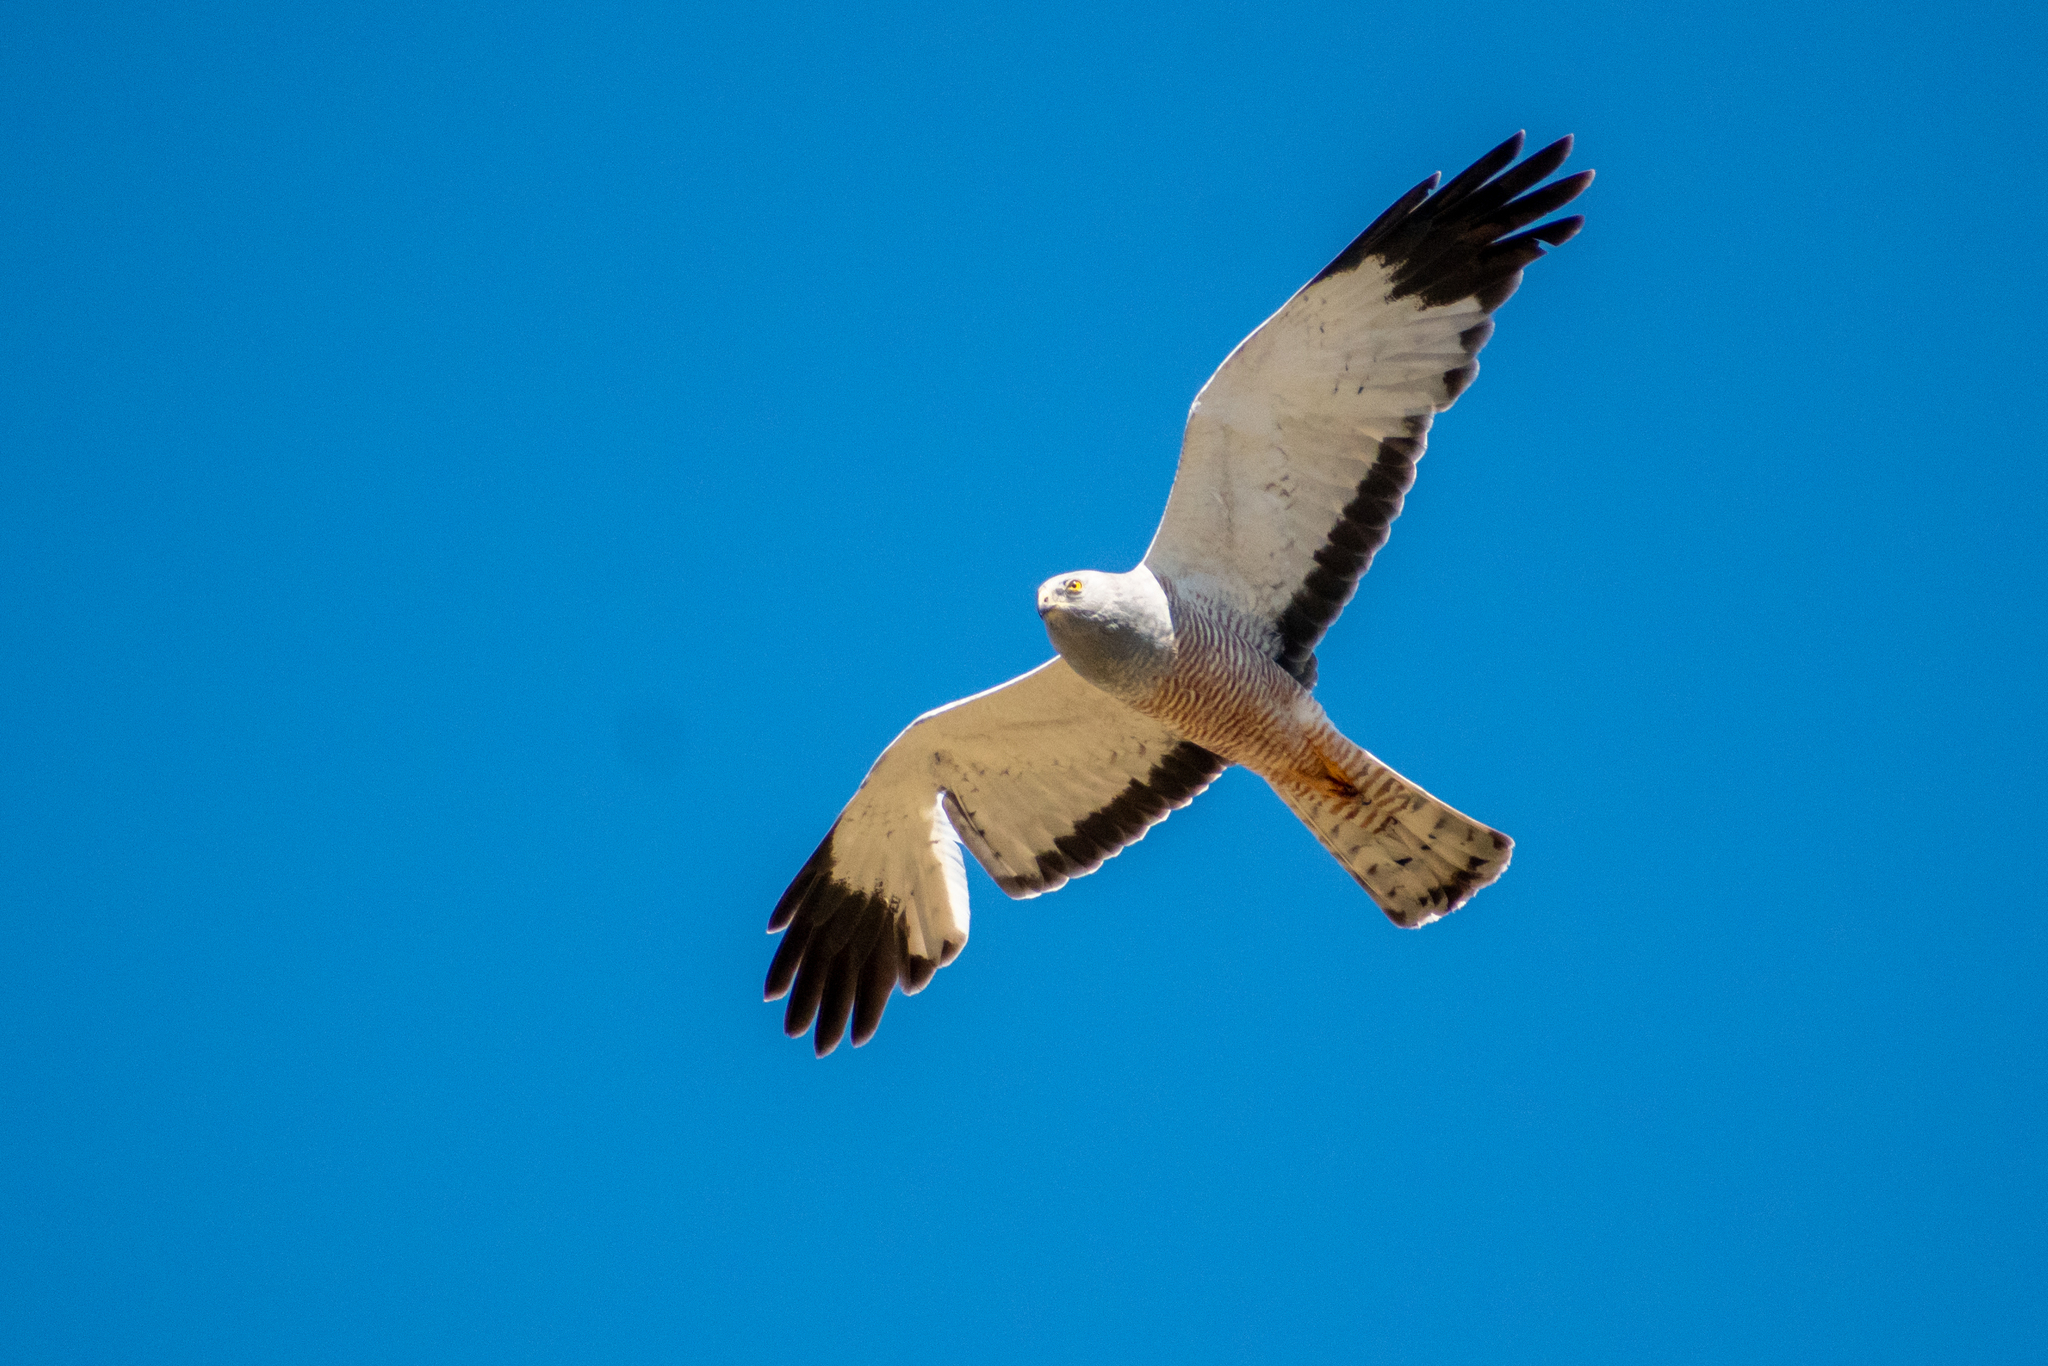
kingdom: Animalia
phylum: Chordata
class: Aves
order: Accipitriformes
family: Accipitridae
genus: Circus
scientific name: Circus cinereus
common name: Cinereous harrier
